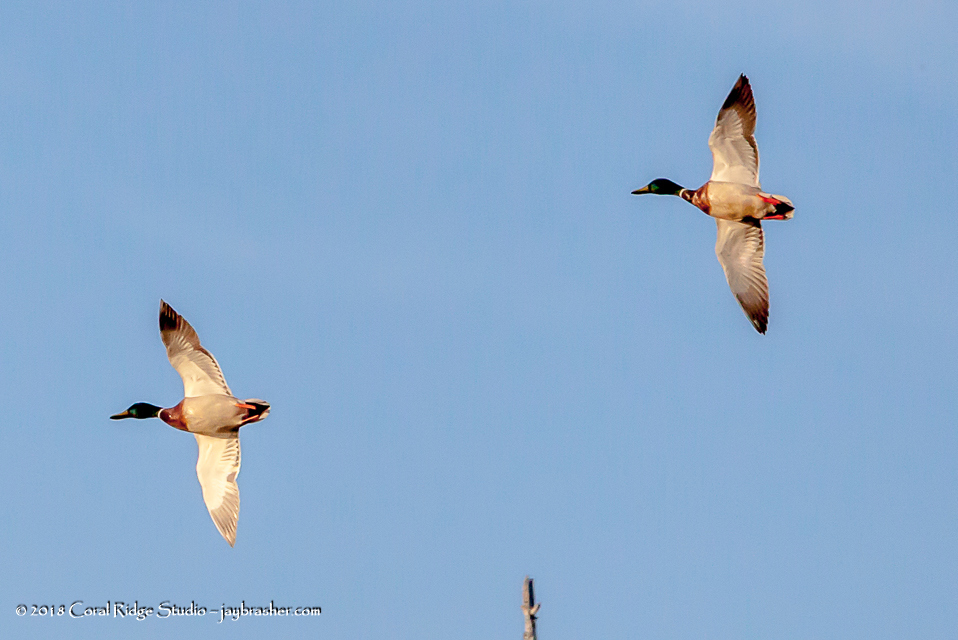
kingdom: Animalia
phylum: Chordata
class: Aves
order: Anseriformes
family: Anatidae
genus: Anas
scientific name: Anas platyrhynchos
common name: Mallard
